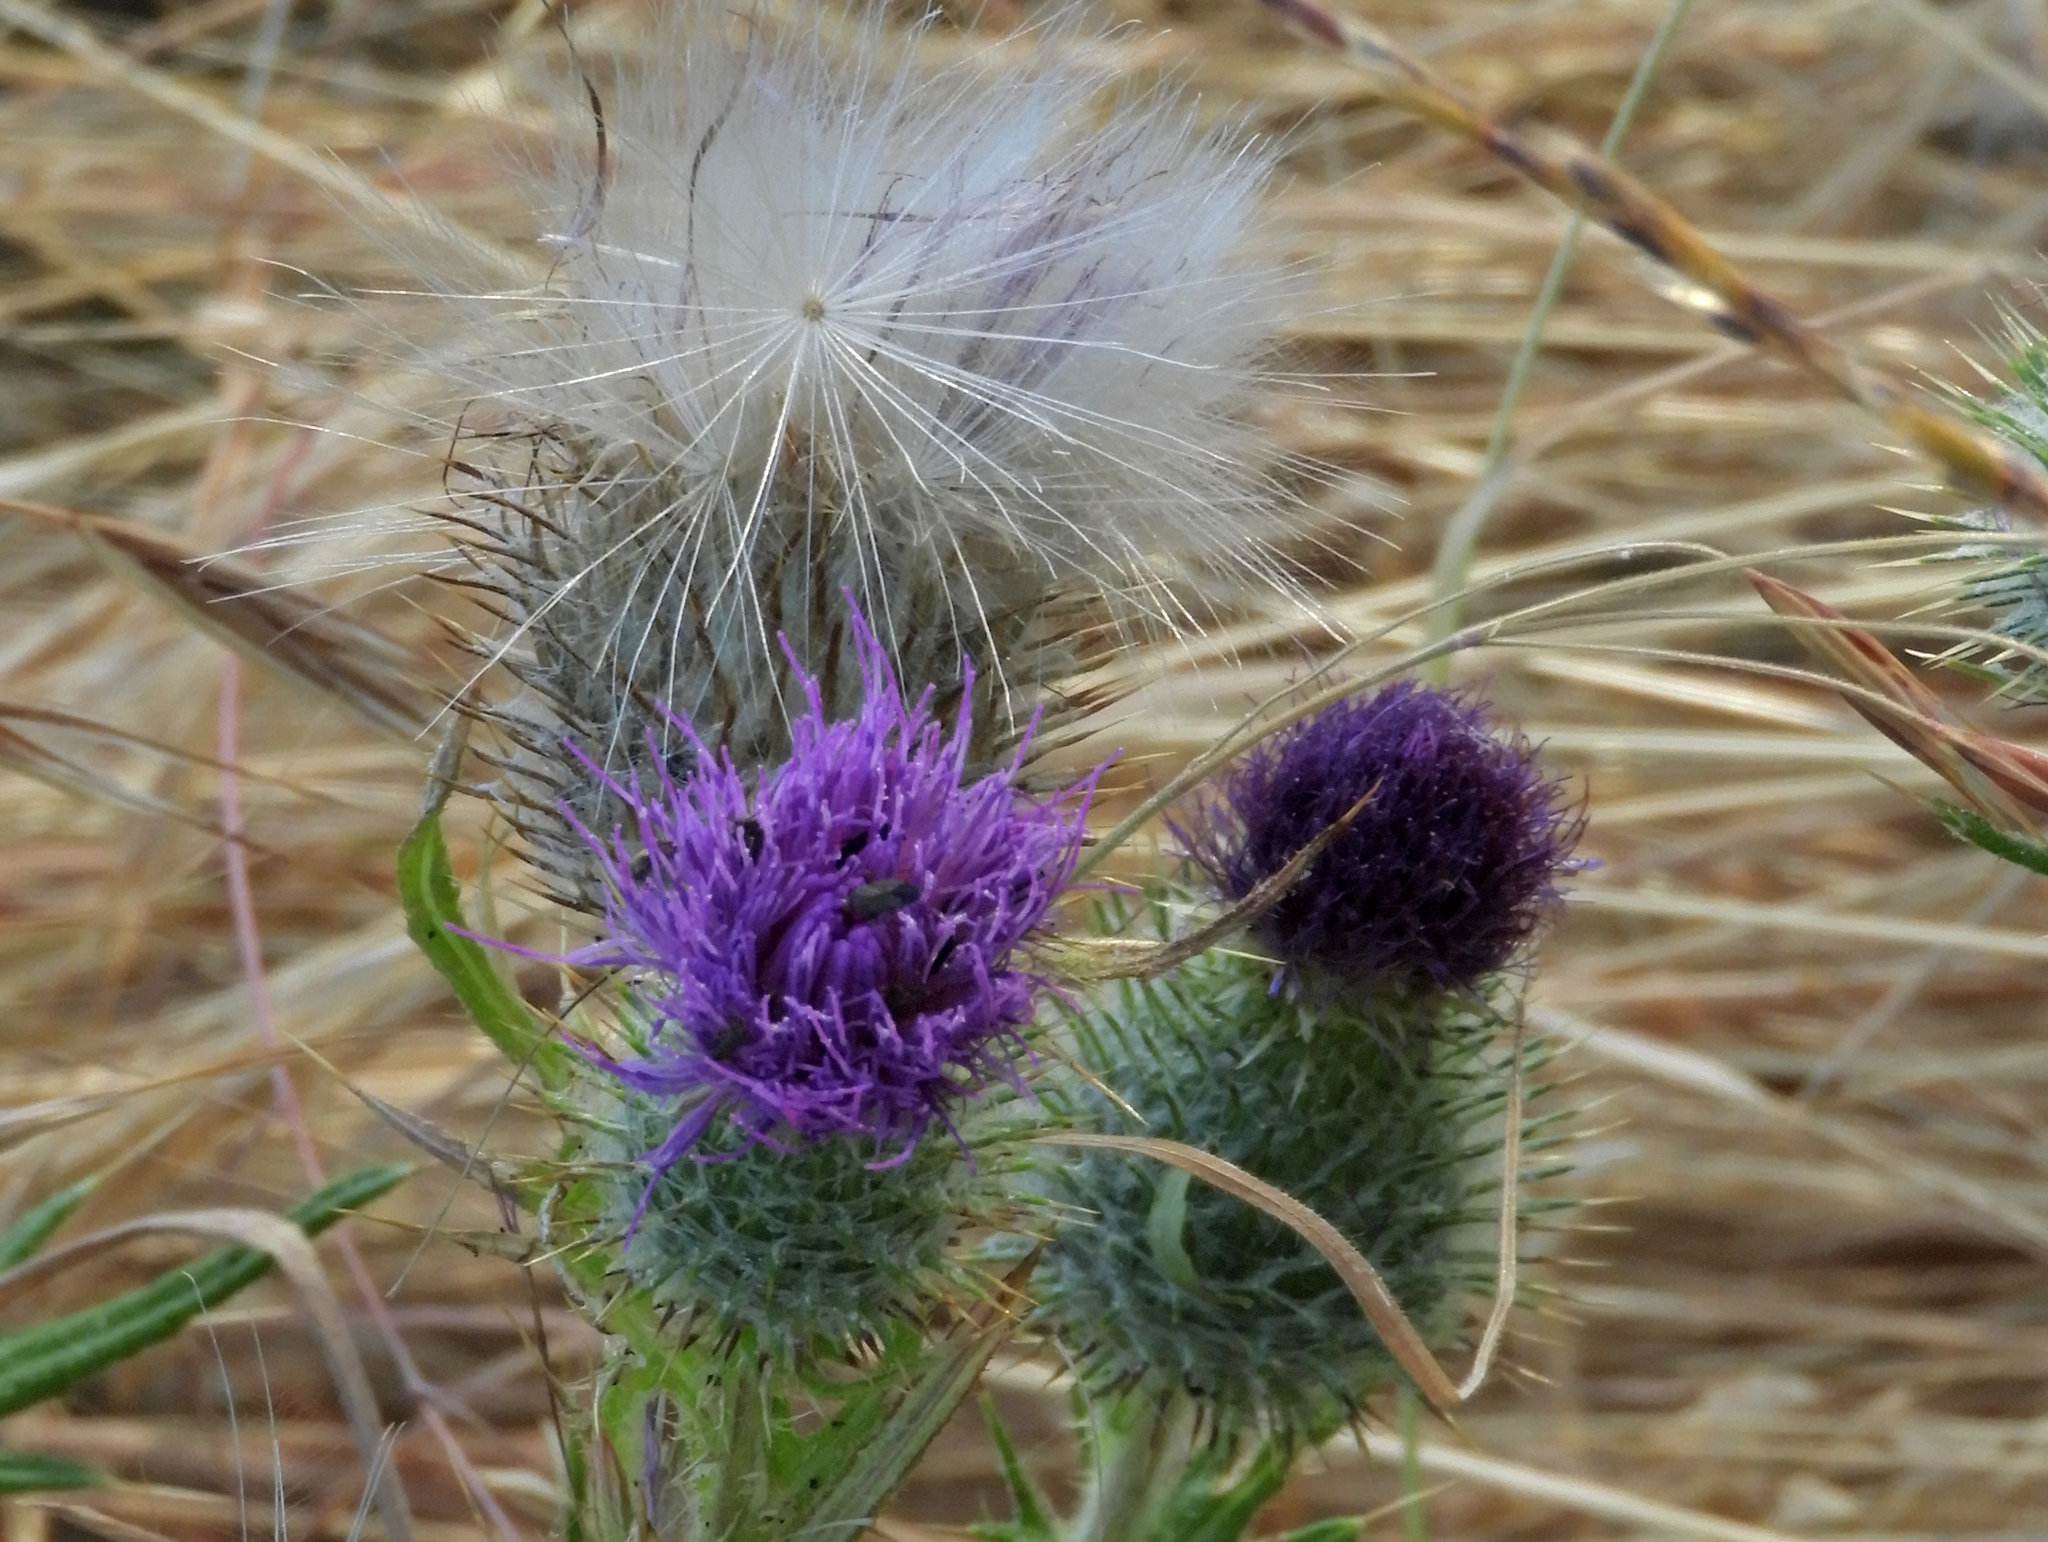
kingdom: Plantae
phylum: Tracheophyta
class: Magnoliopsida
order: Asterales
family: Asteraceae
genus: Cirsium
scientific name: Cirsium vulgare
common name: Bull thistle
